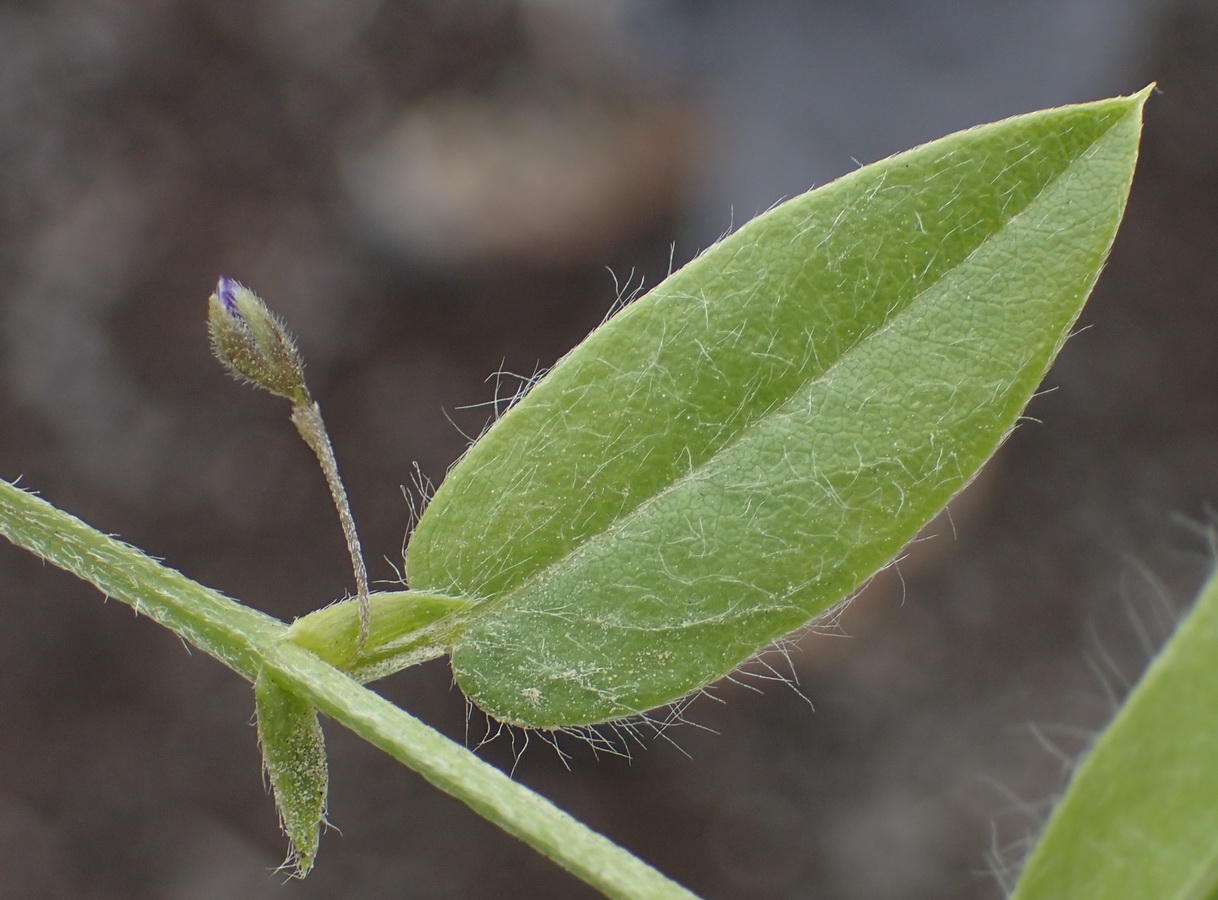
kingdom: Plantae
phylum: Tracheophyta
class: Magnoliopsida
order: Fabales
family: Fabaceae
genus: Psoralea
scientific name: Psoralea plauta
